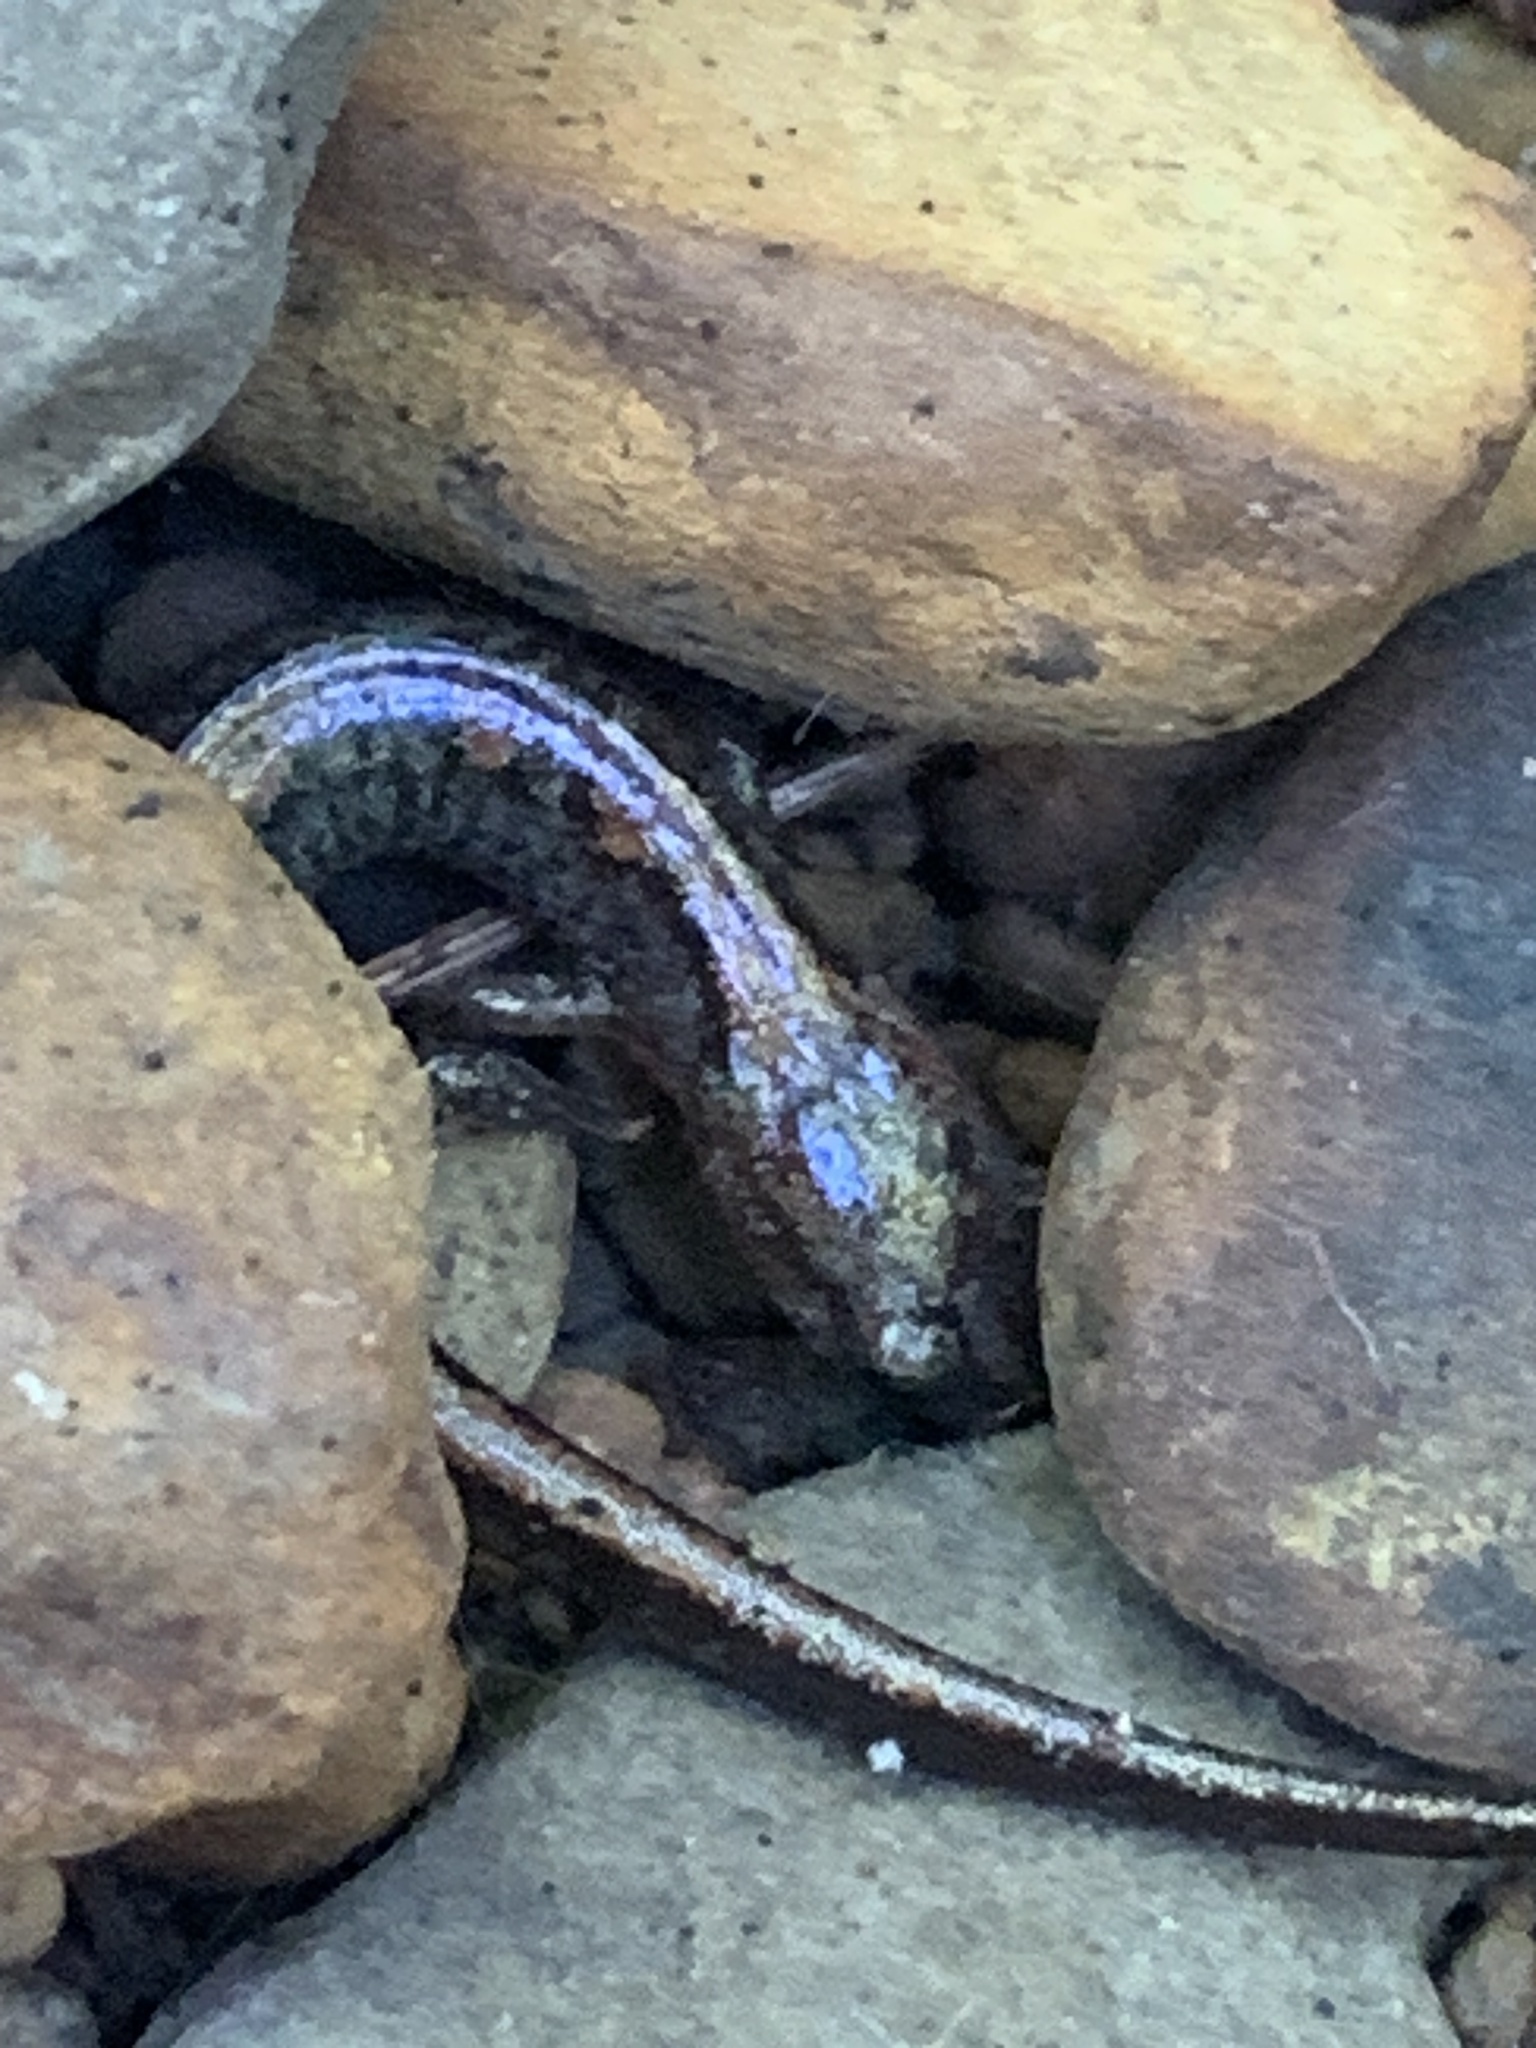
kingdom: Animalia
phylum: Chordata
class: Amphibia
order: Caudata
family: Plethodontidae
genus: Plethodon
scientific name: Plethodon dorsalis
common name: Northern zigzag salamander
